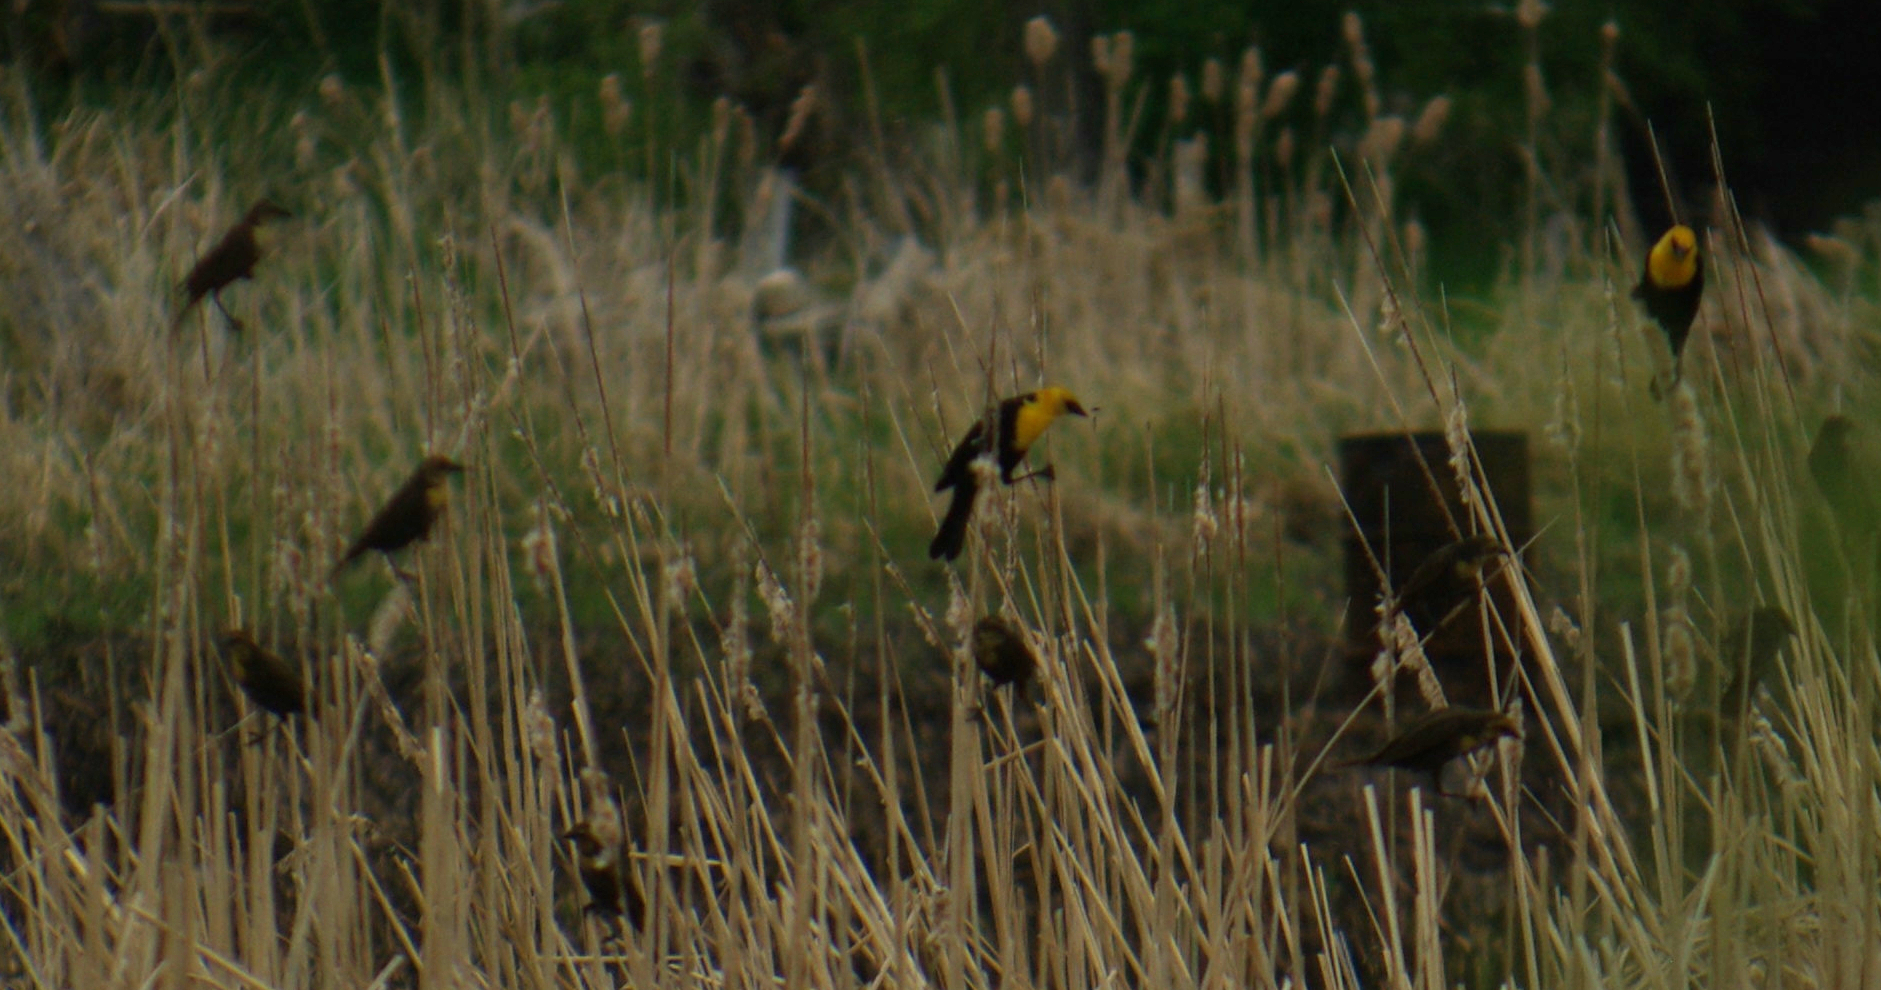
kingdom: Animalia
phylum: Chordata
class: Aves
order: Passeriformes
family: Icteridae
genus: Xanthocephalus
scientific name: Xanthocephalus xanthocephalus
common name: Yellow-headed blackbird
